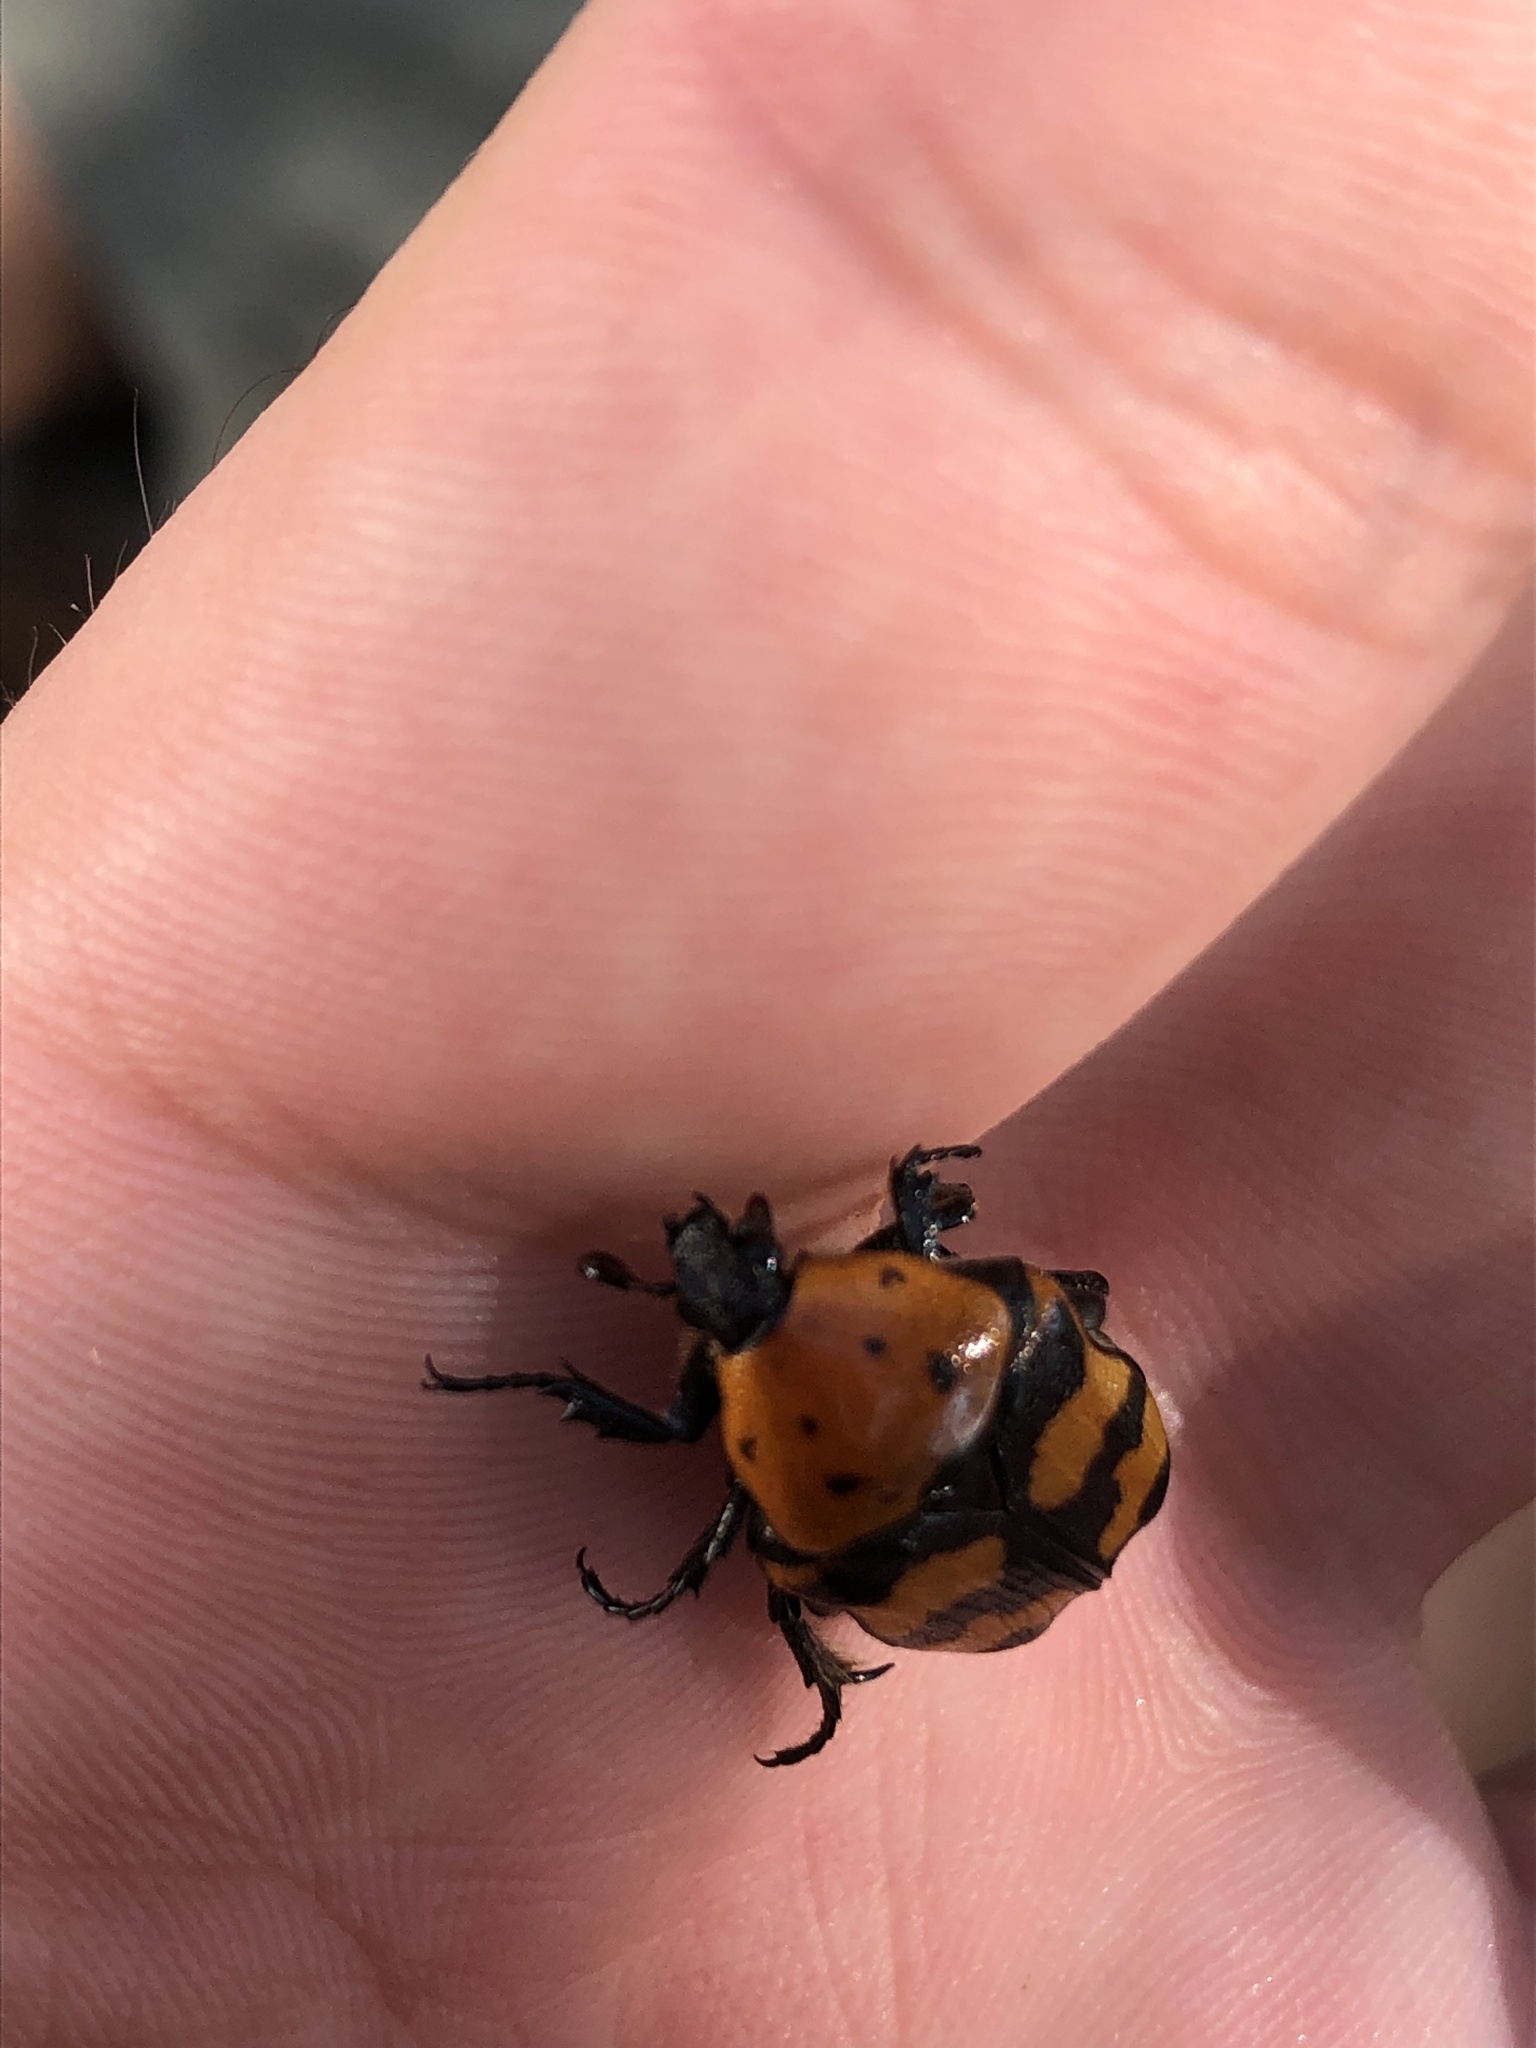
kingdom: Animalia
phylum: Arthropoda
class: Insecta
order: Coleoptera
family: Scarabaeidae
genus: Euphoria
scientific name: Euphoria fascifera
